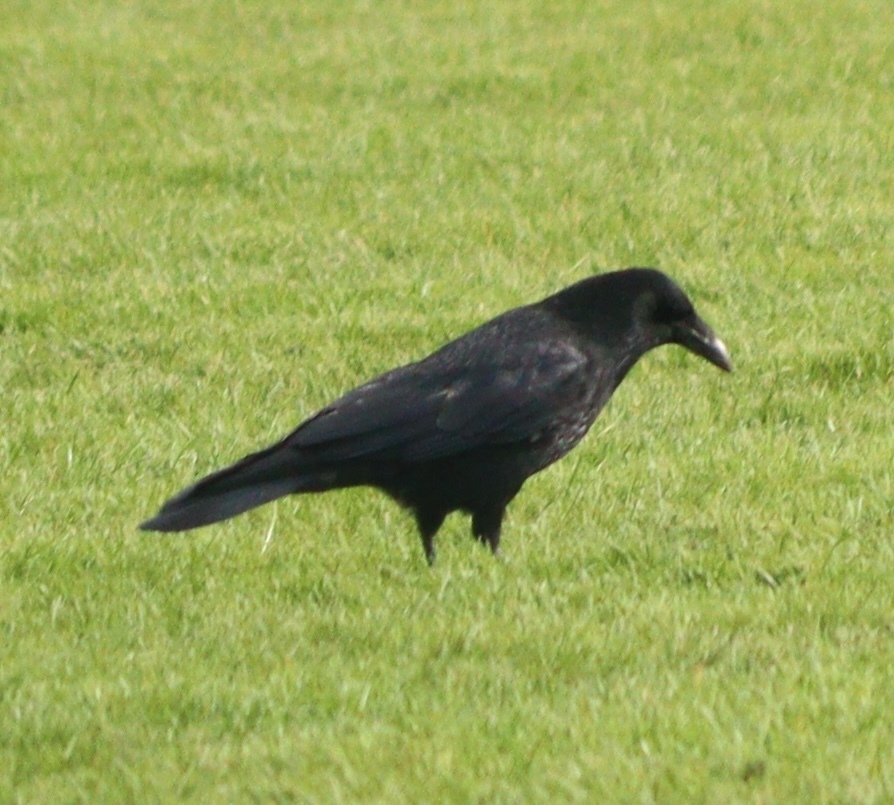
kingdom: Animalia
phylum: Chordata
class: Aves
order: Passeriformes
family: Corvidae
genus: Corvus
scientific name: Corvus corone
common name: Carrion crow
